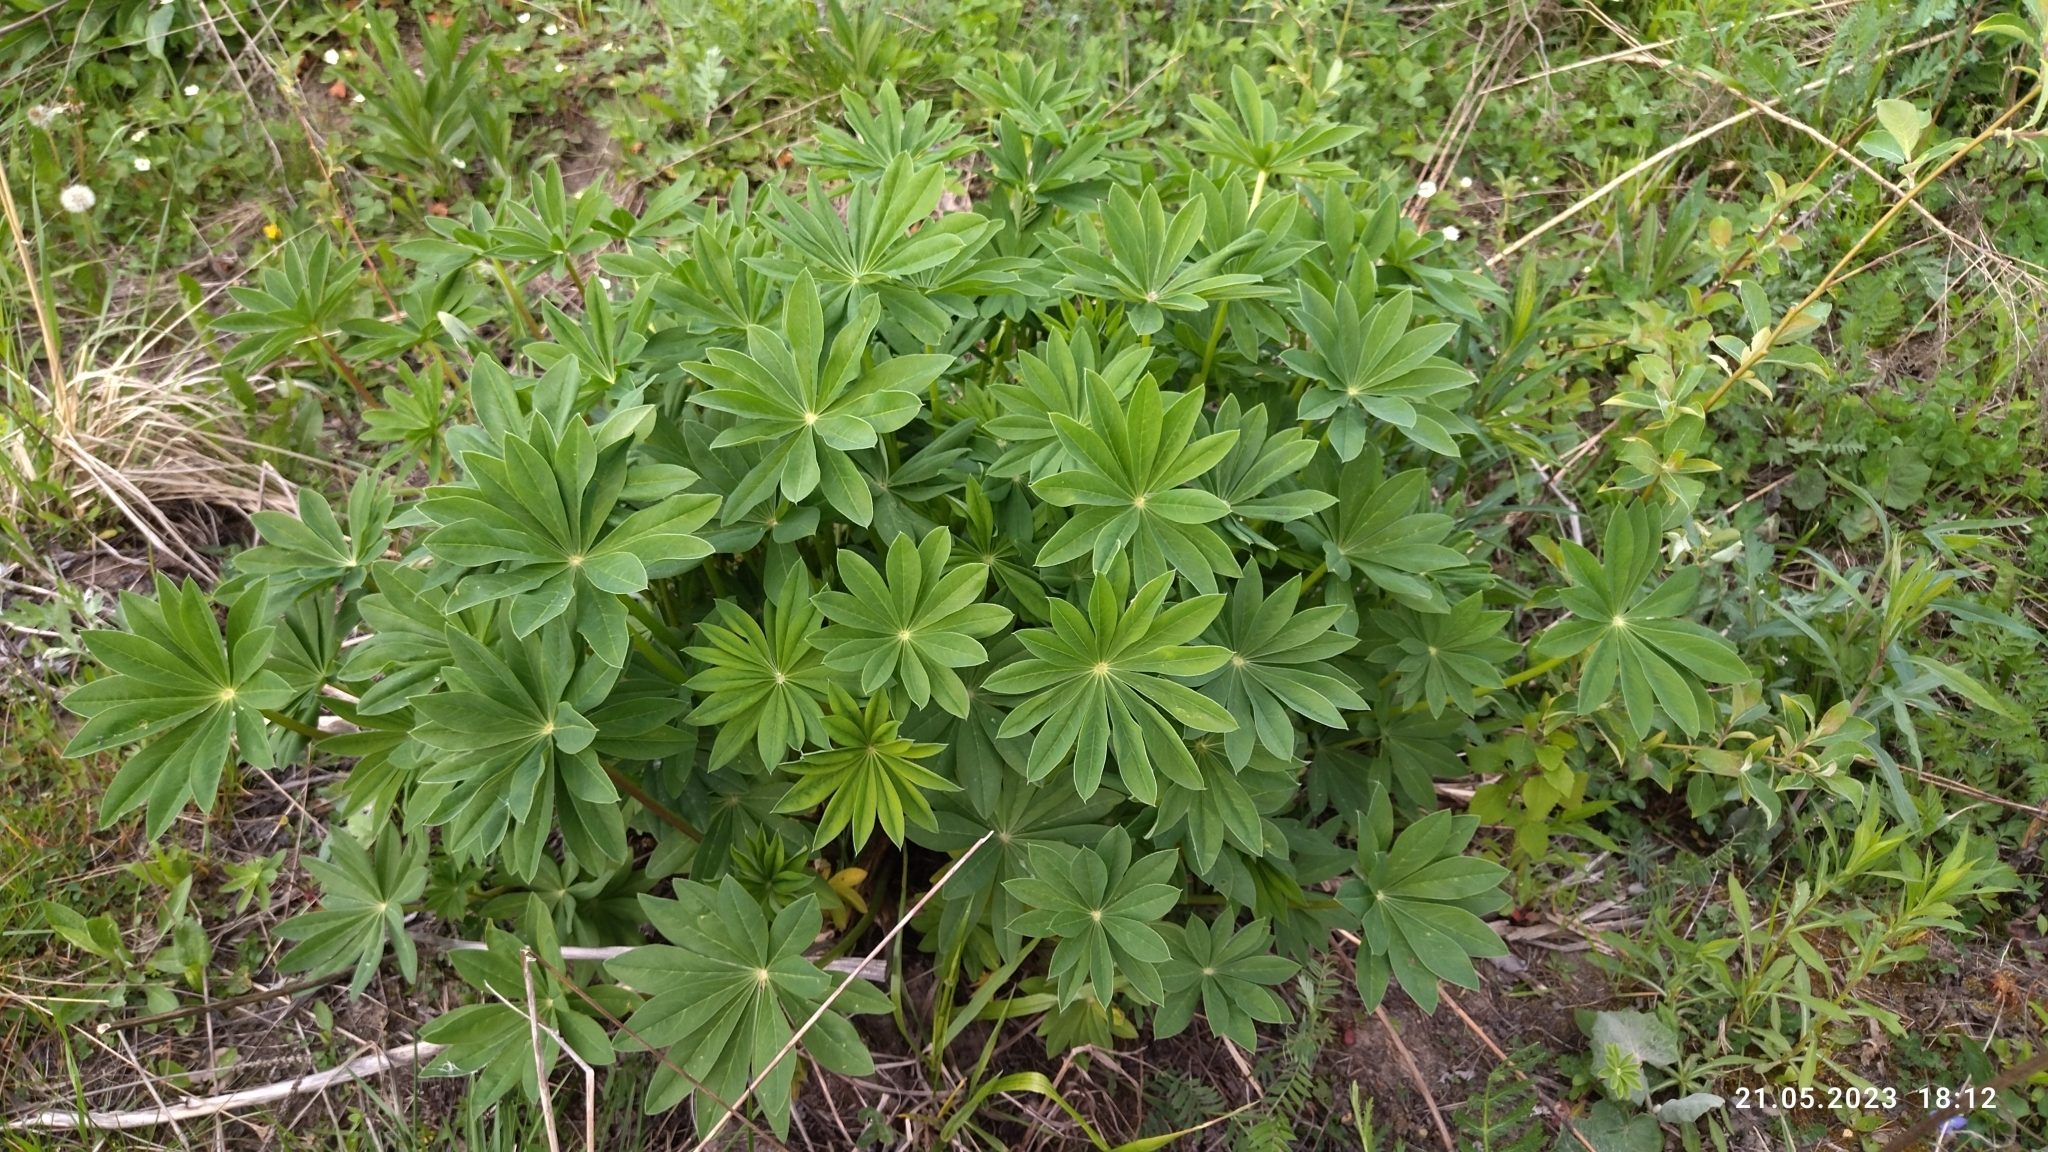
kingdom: Plantae
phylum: Tracheophyta
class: Magnoliopsida
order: Fabales
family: Fabaceae
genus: Lupinus
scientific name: Lupinus polyphyllus
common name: Garden lupin
